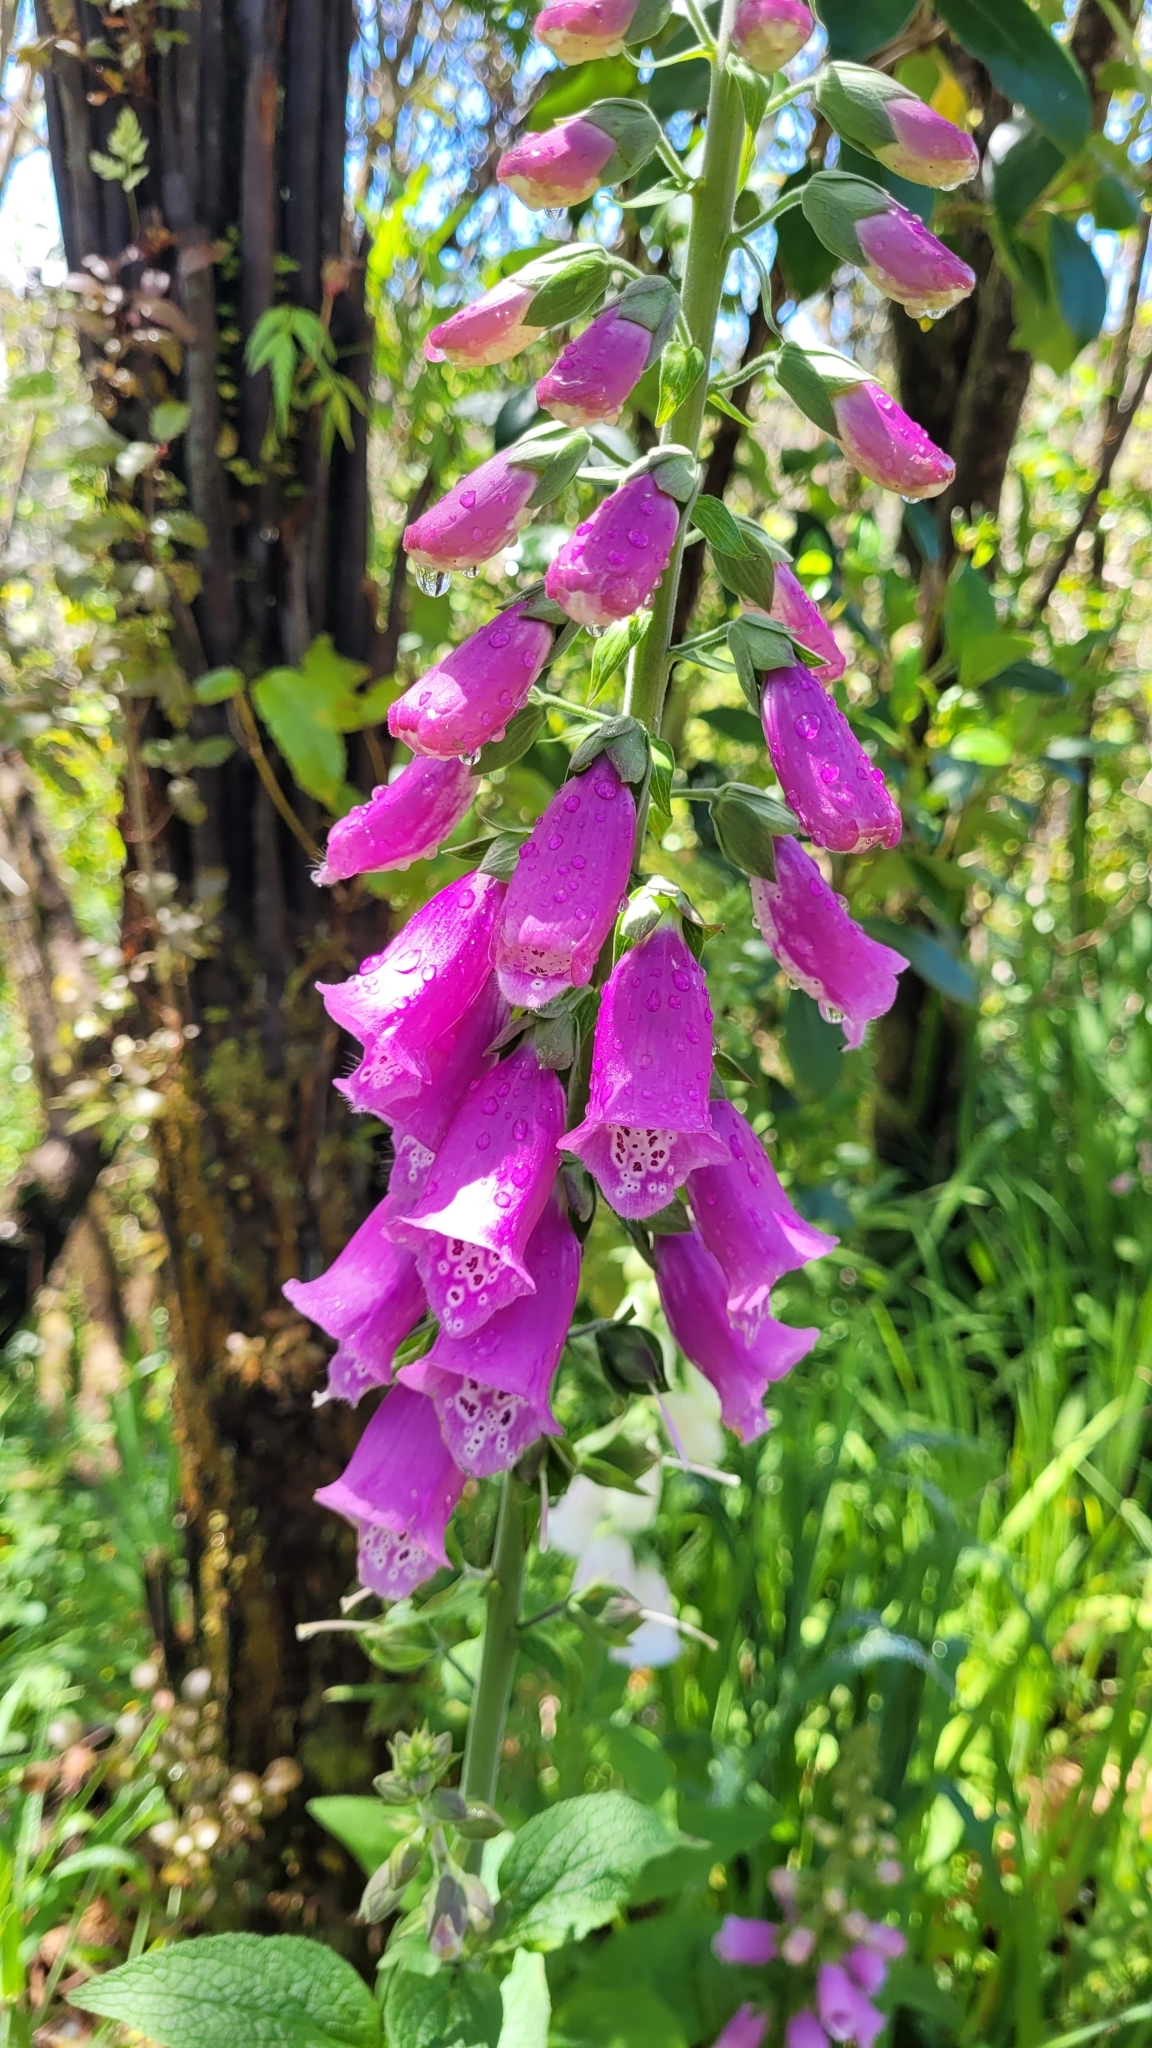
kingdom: Plantae
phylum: Tracheophyta
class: Magnoliopsida
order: Lamiales
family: Plantaginaceae
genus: Digitalis
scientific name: Digitalis purpurea
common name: Foxglove
